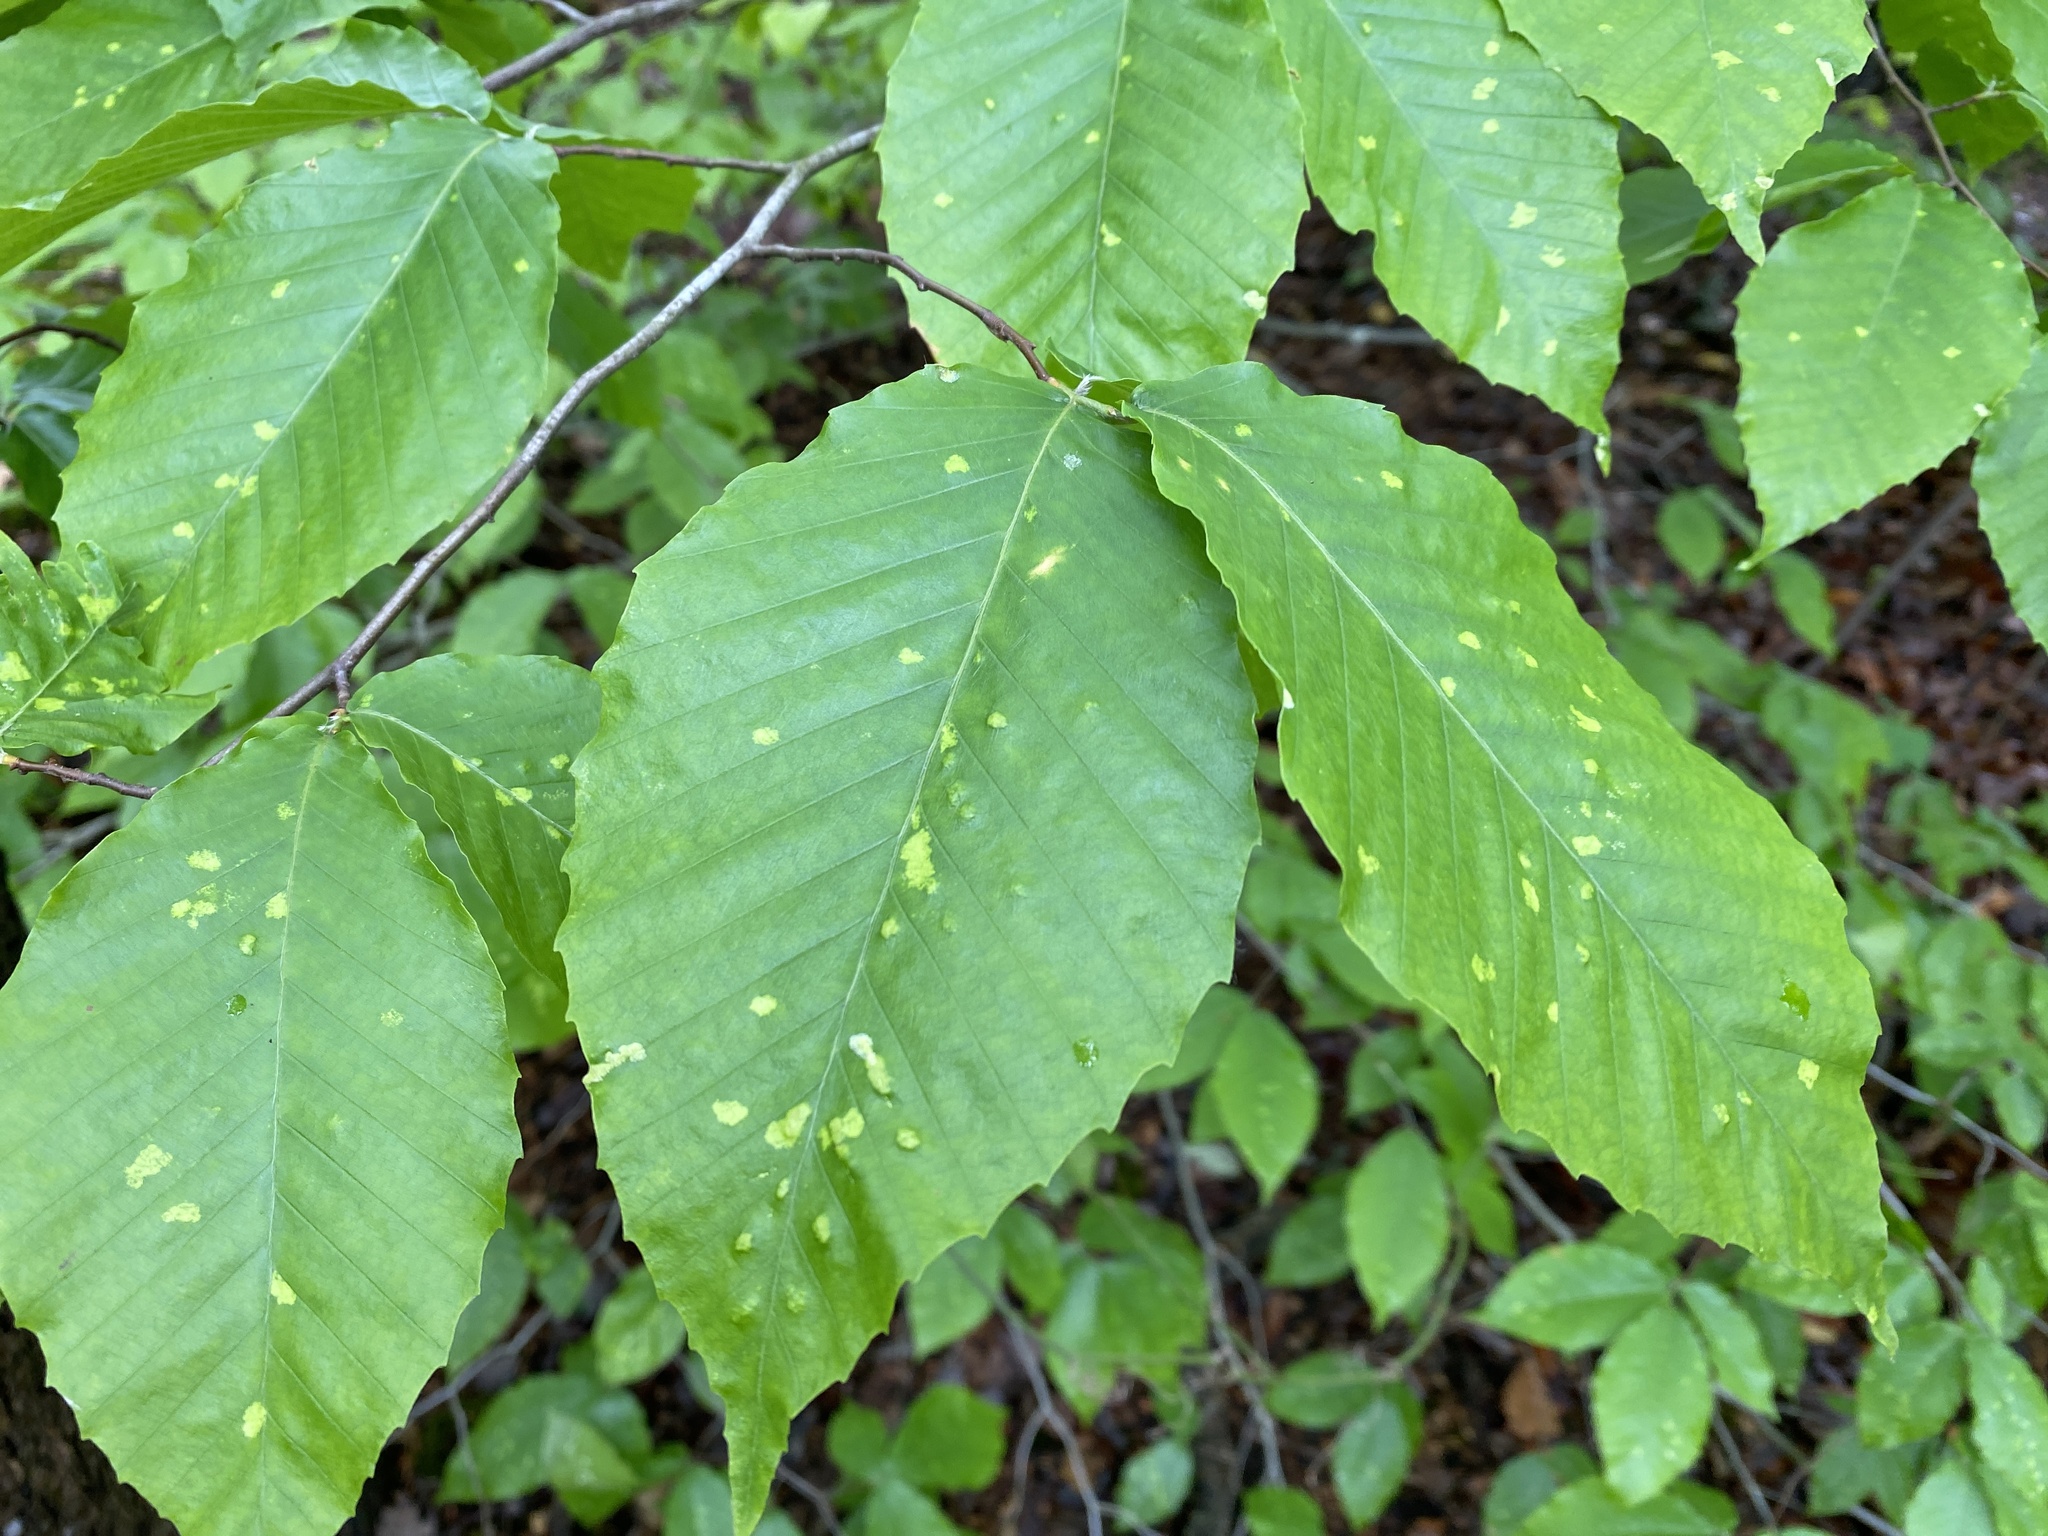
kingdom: Animalia
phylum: Arthropoda
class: Arachnida
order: Trombidiformes
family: Eriophyidae
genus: Acalitus
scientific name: Acalitus
